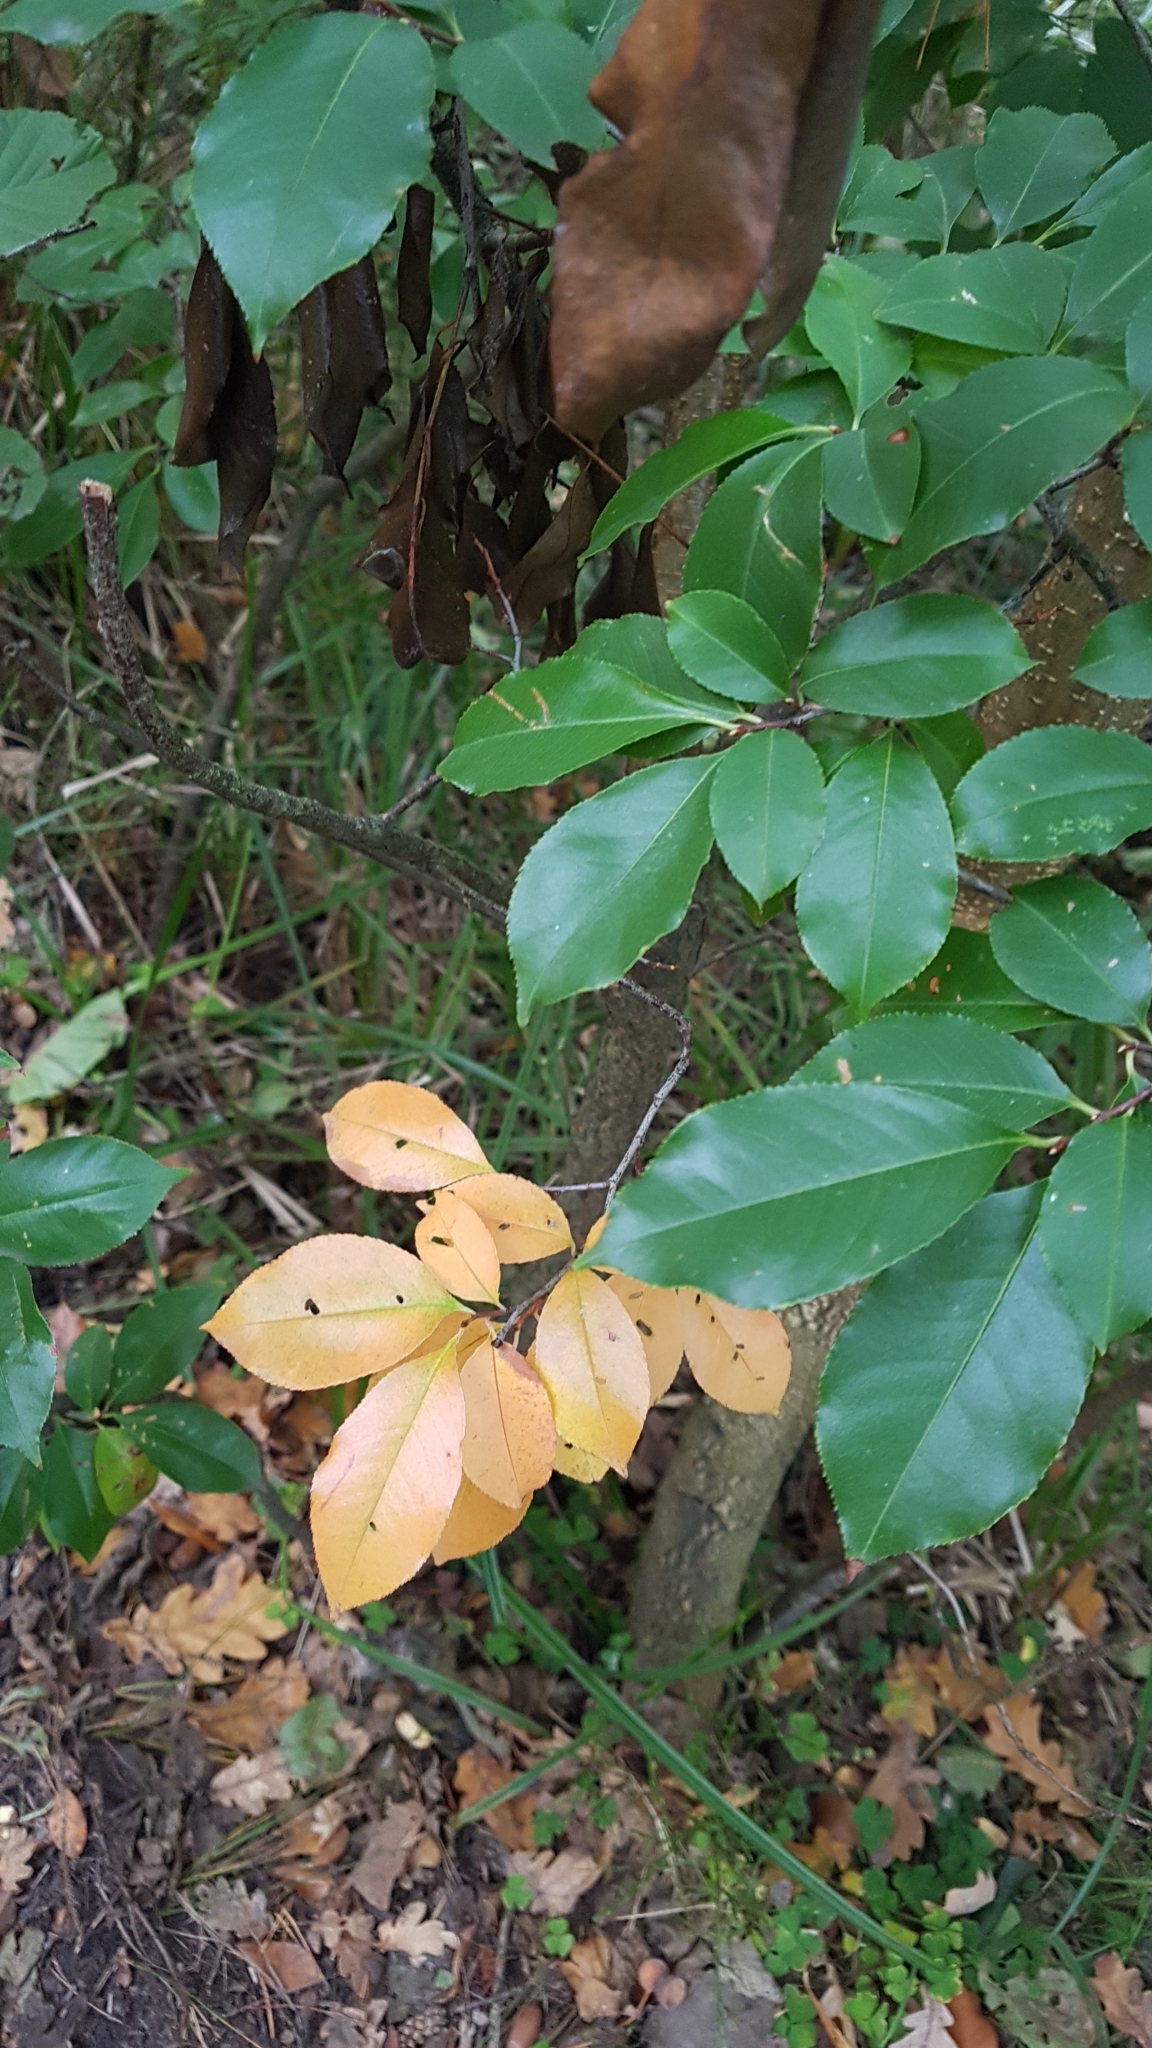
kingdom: Plantae
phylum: Tracheophyta
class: Magnoliopsida
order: Rosales
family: Rosaceae
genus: Prunus
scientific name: Prunus serotina
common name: Black cherry
